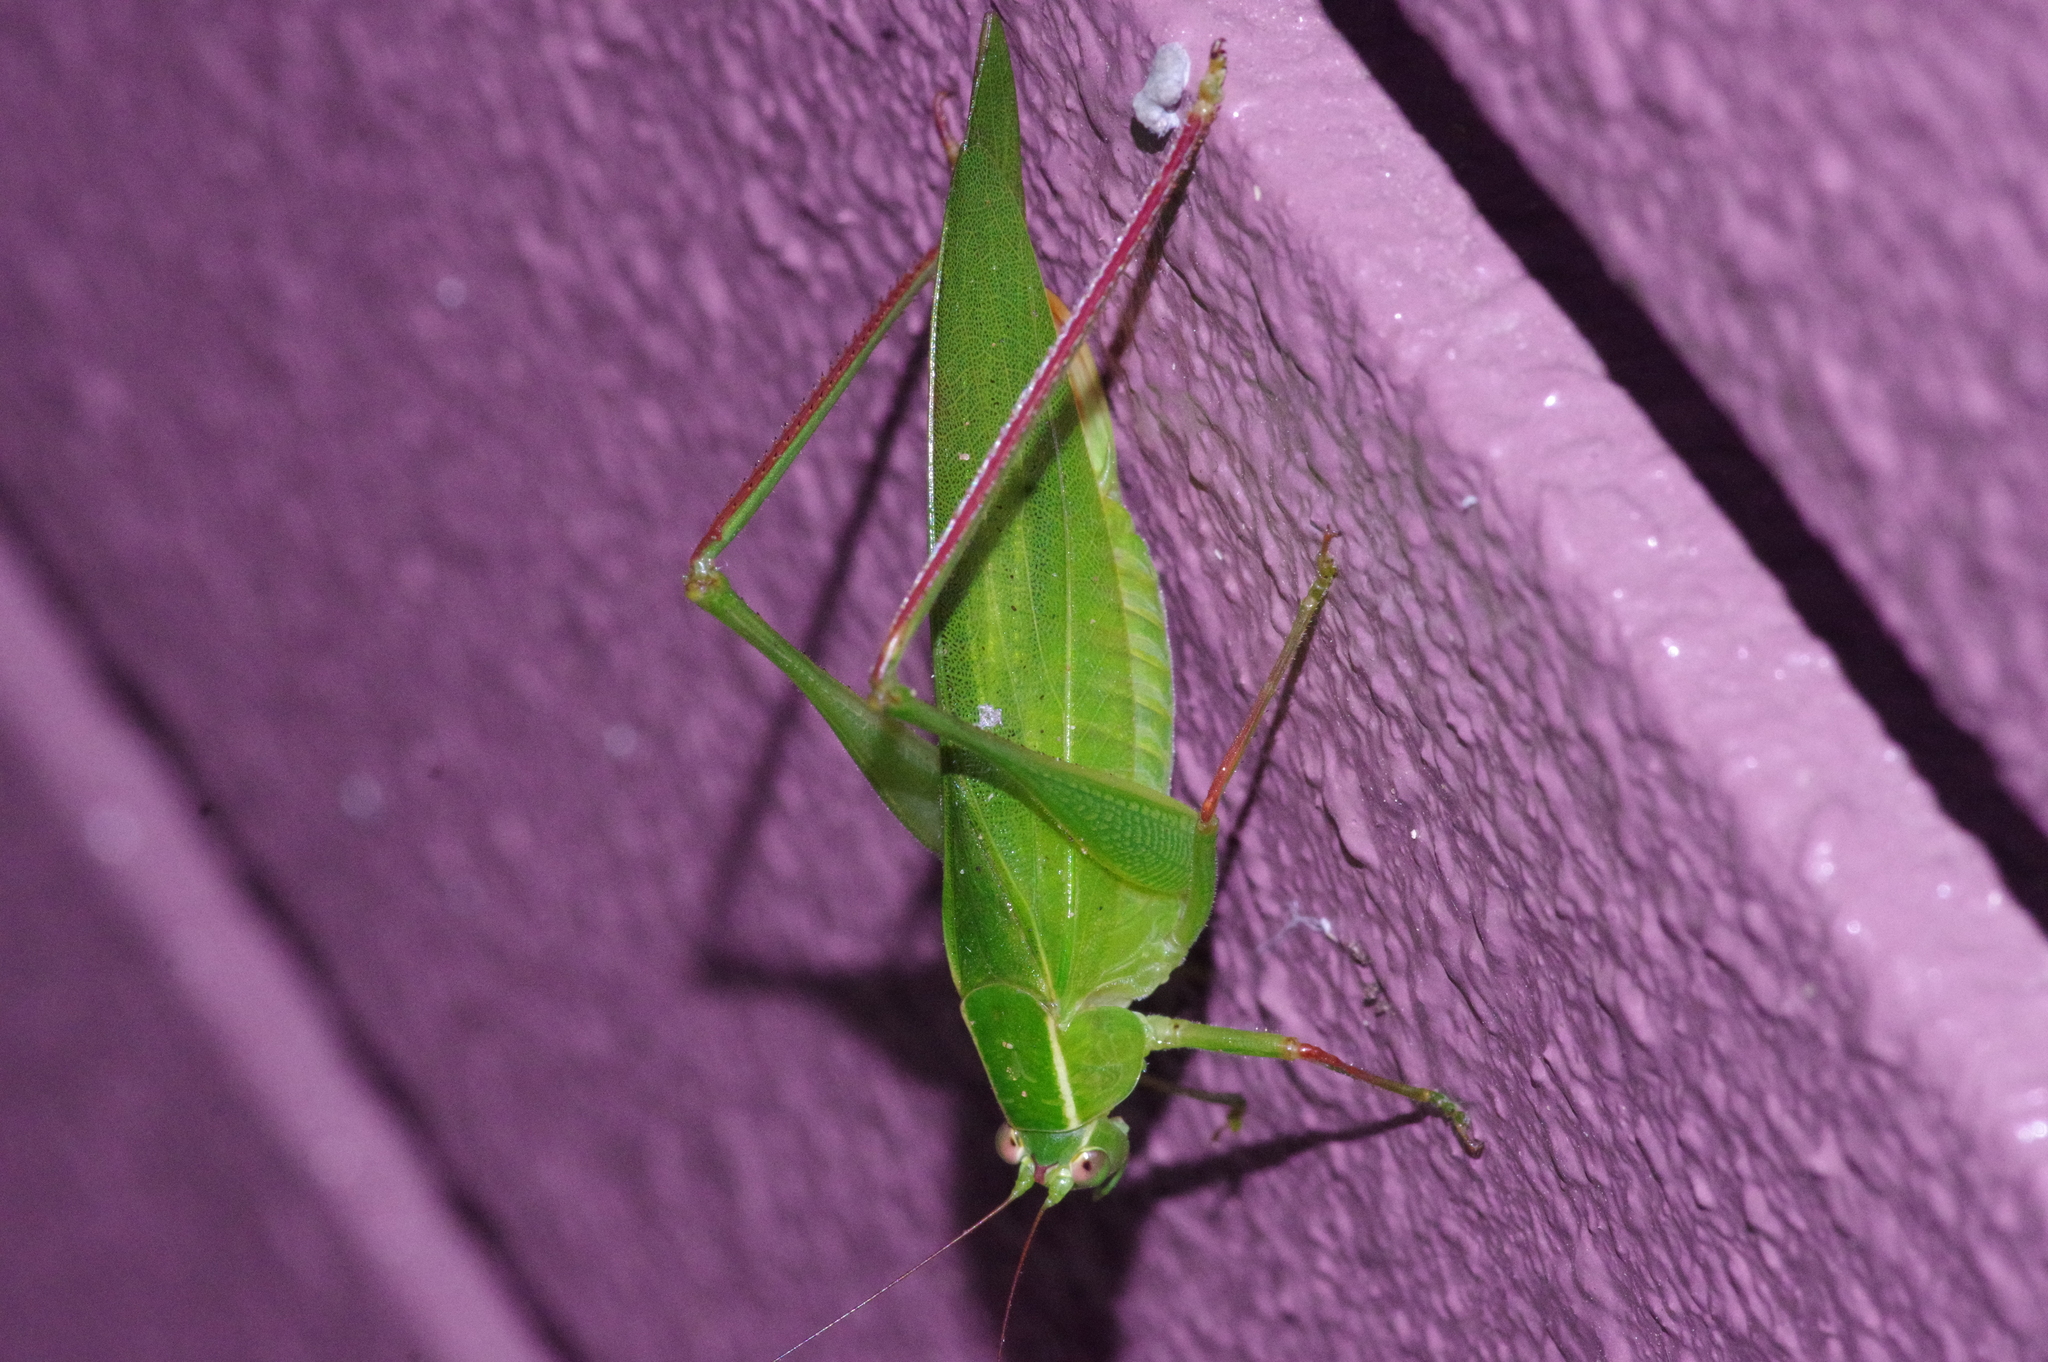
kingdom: Animalia
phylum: Arthropoda
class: Insecta
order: Orthoptera
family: Tettigoniidae
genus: Isopsera
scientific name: Isopsera denticulata
